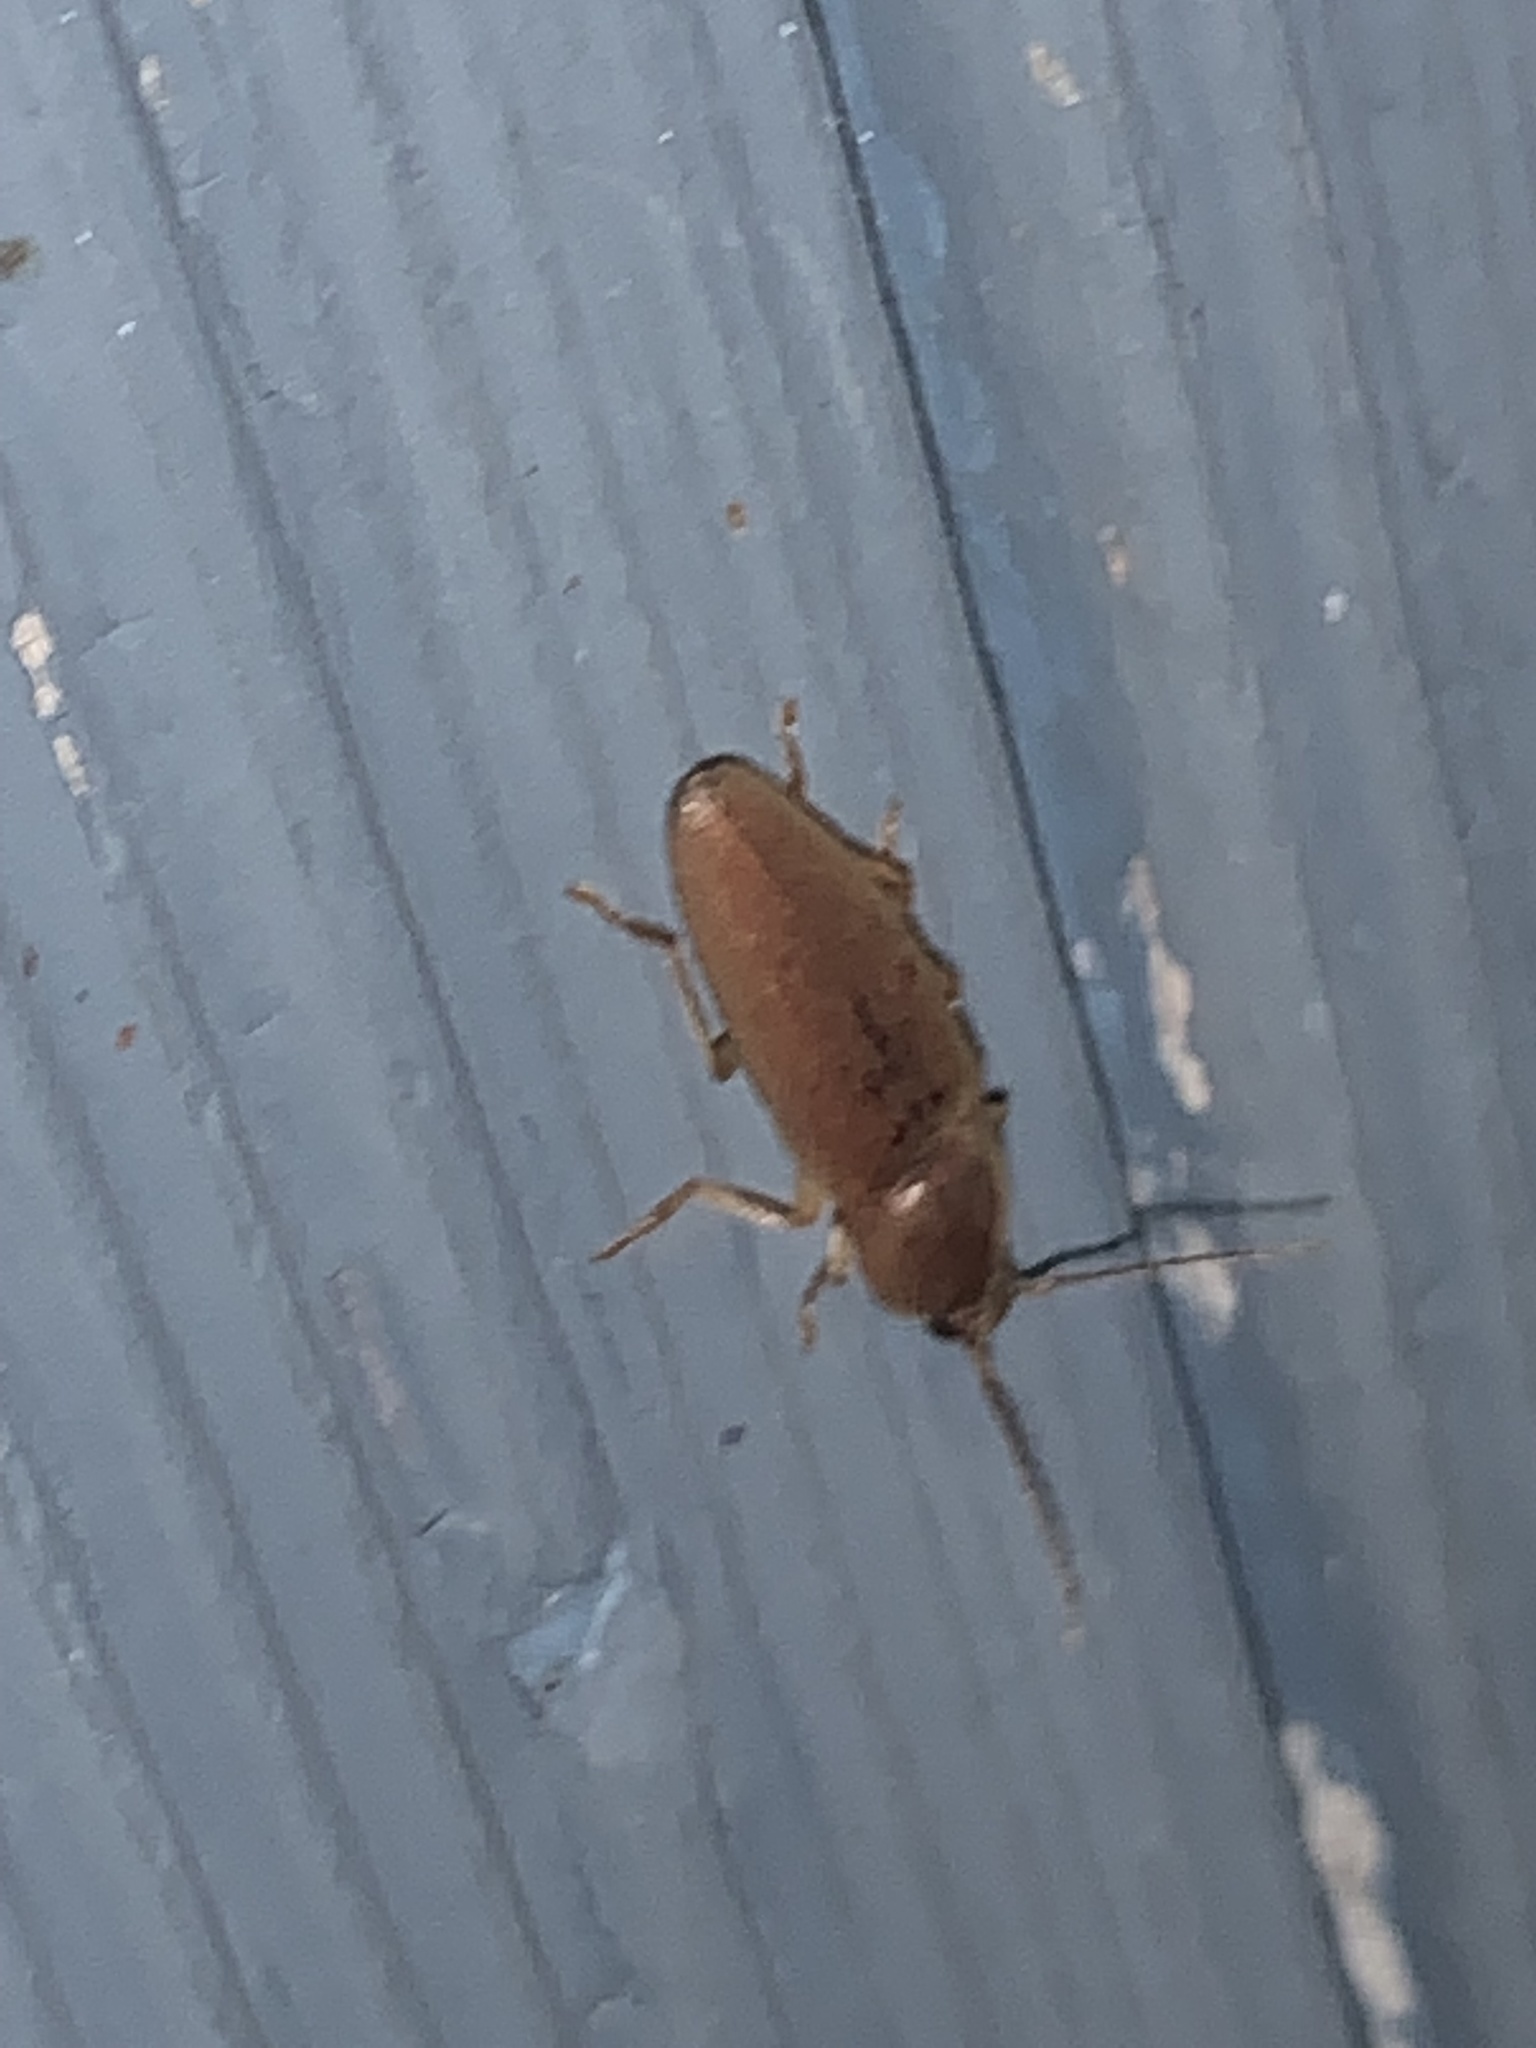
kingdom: Animalia
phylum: Arthropoda
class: Insecta
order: Coleoptera
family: Elateridae
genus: Monocrepidius
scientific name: Monocrepidius lividus
